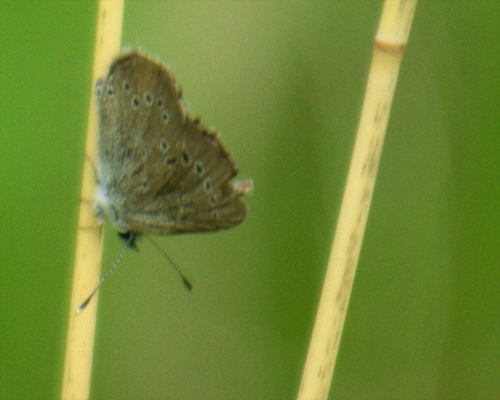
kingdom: Animalia
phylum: Arthropoda
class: Insecta
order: Lepidoptera
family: Lycaenidae
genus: Glaucopsyche
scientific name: Glaucopsyche lygdamus
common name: Silvery blue
